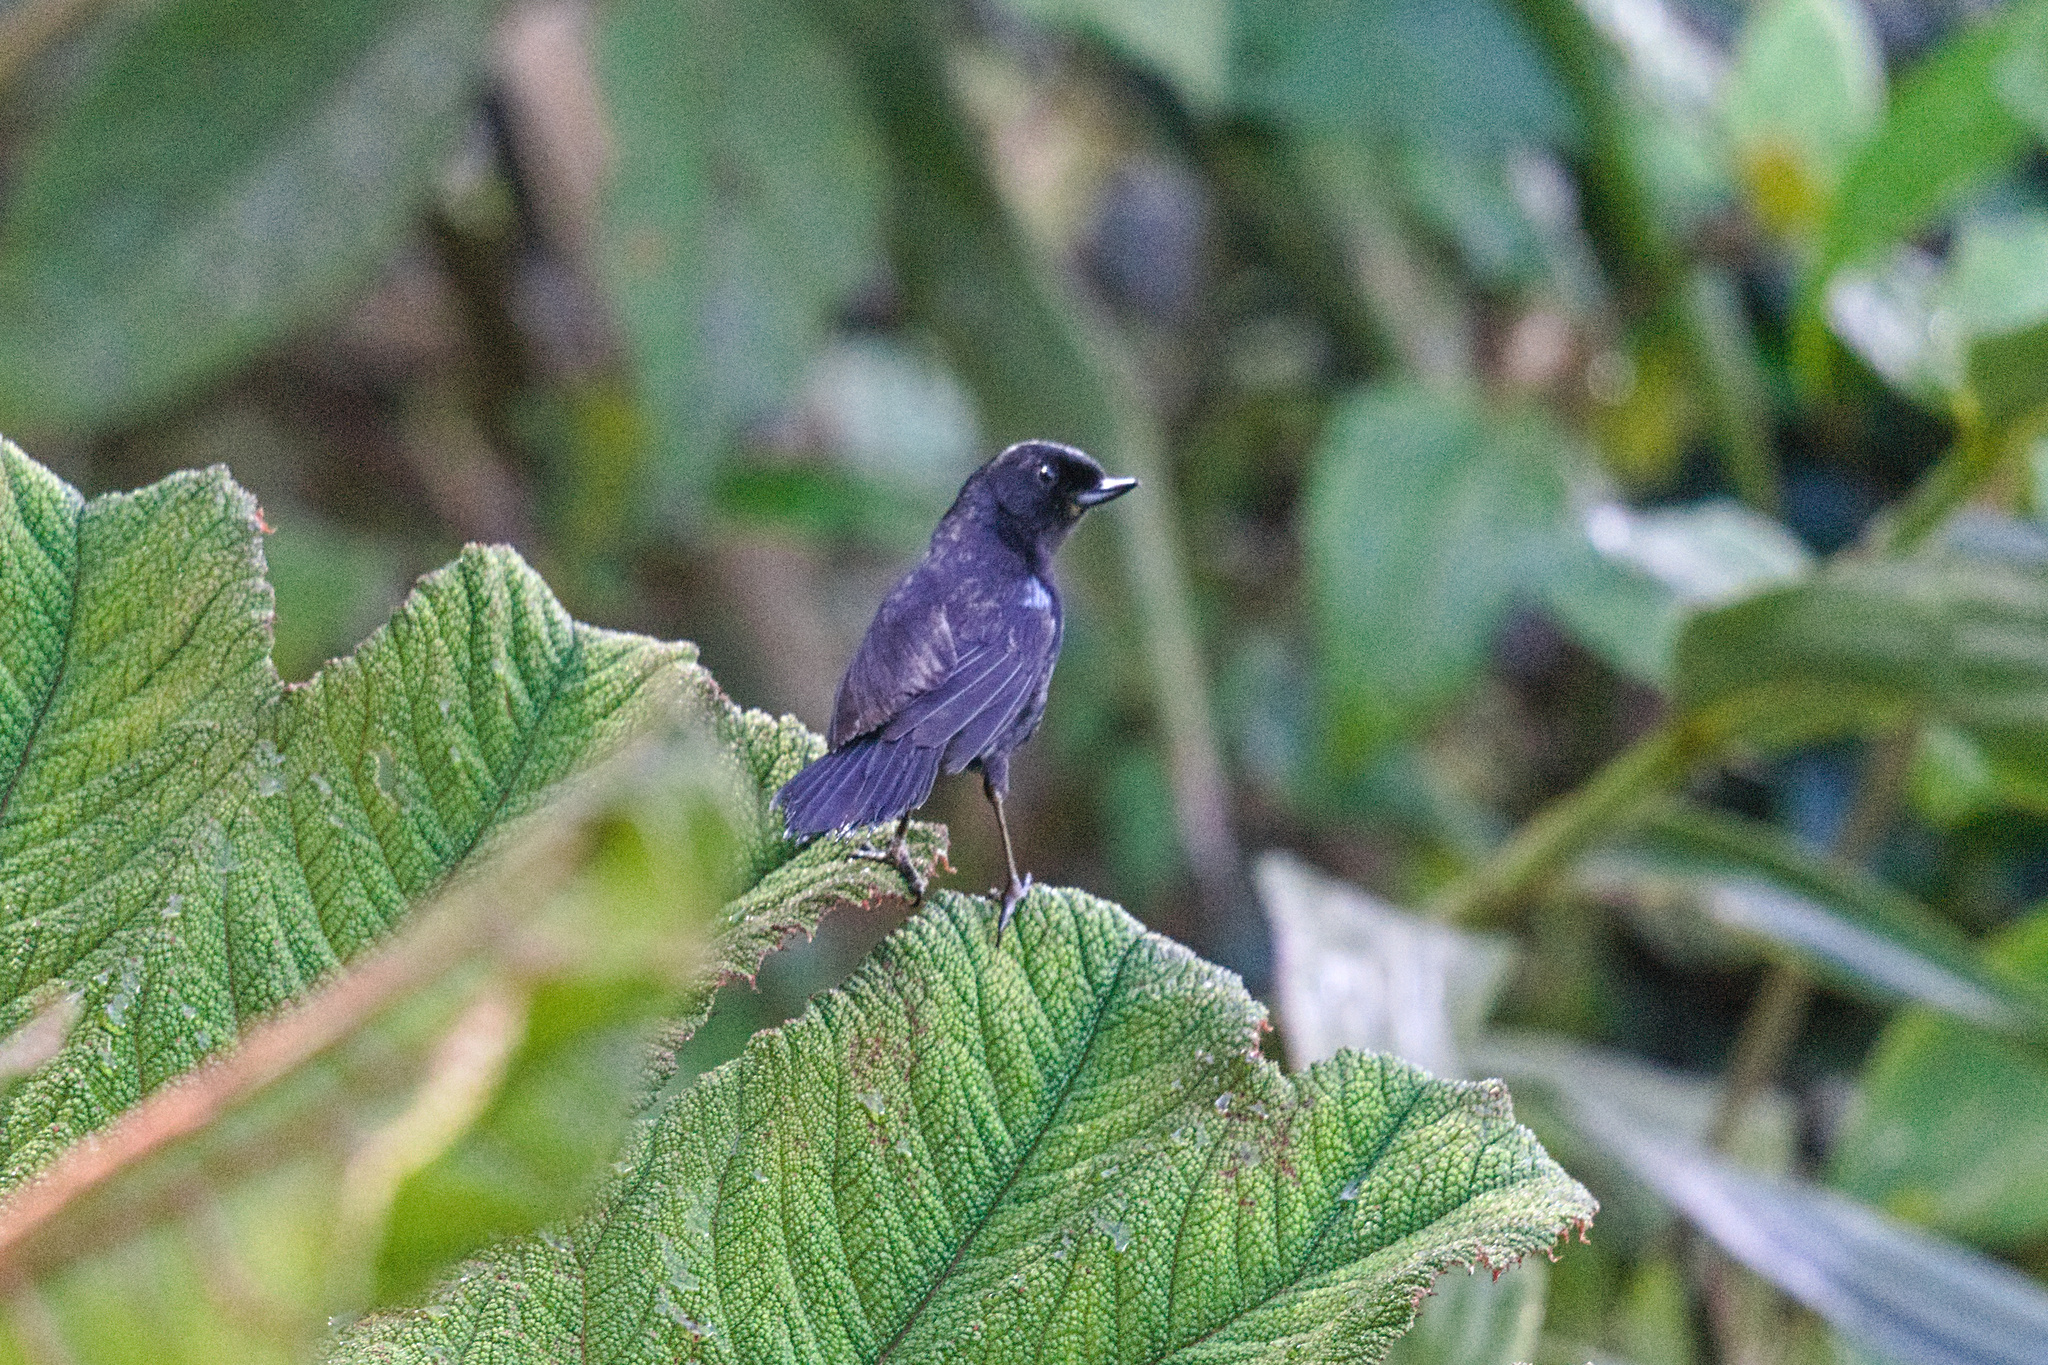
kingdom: Animalia
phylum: Chordata
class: Aves
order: Passeriformes
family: Thraupidae
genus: Diglossa
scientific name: Diglossa lafresnayii
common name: Glossy flowerpiercer
